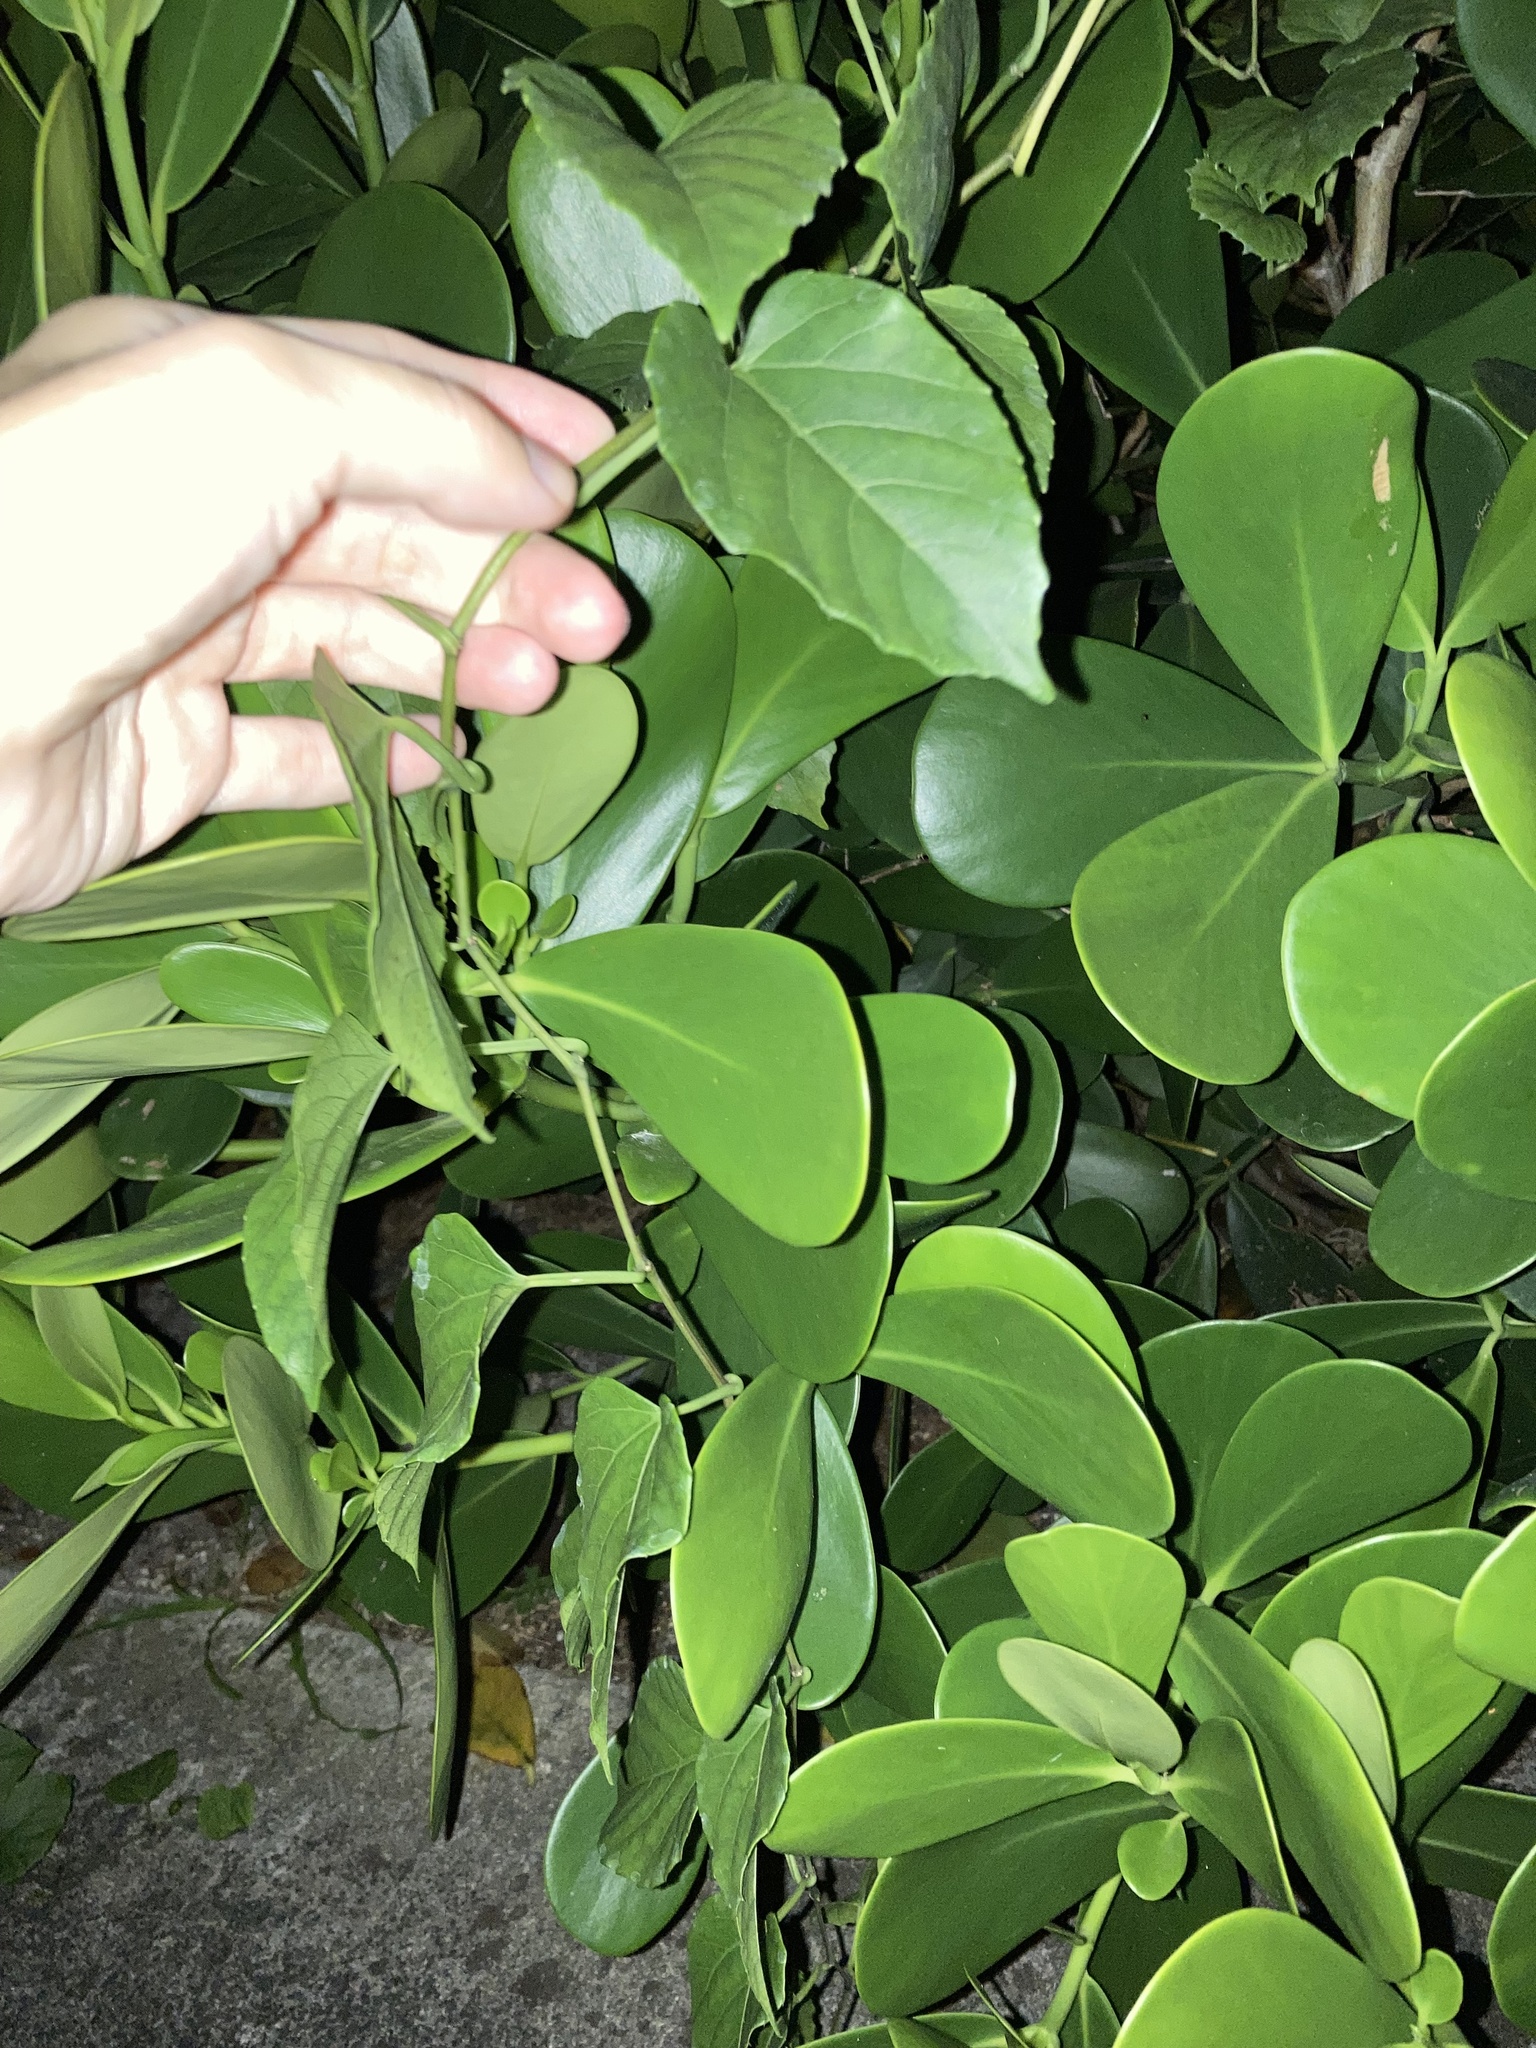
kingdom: Plantae
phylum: Tracheophyta
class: Magnoliopsida
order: Vitales
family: Vitaceae
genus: Cissus
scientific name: Cissus verticillata
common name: Princess vine
